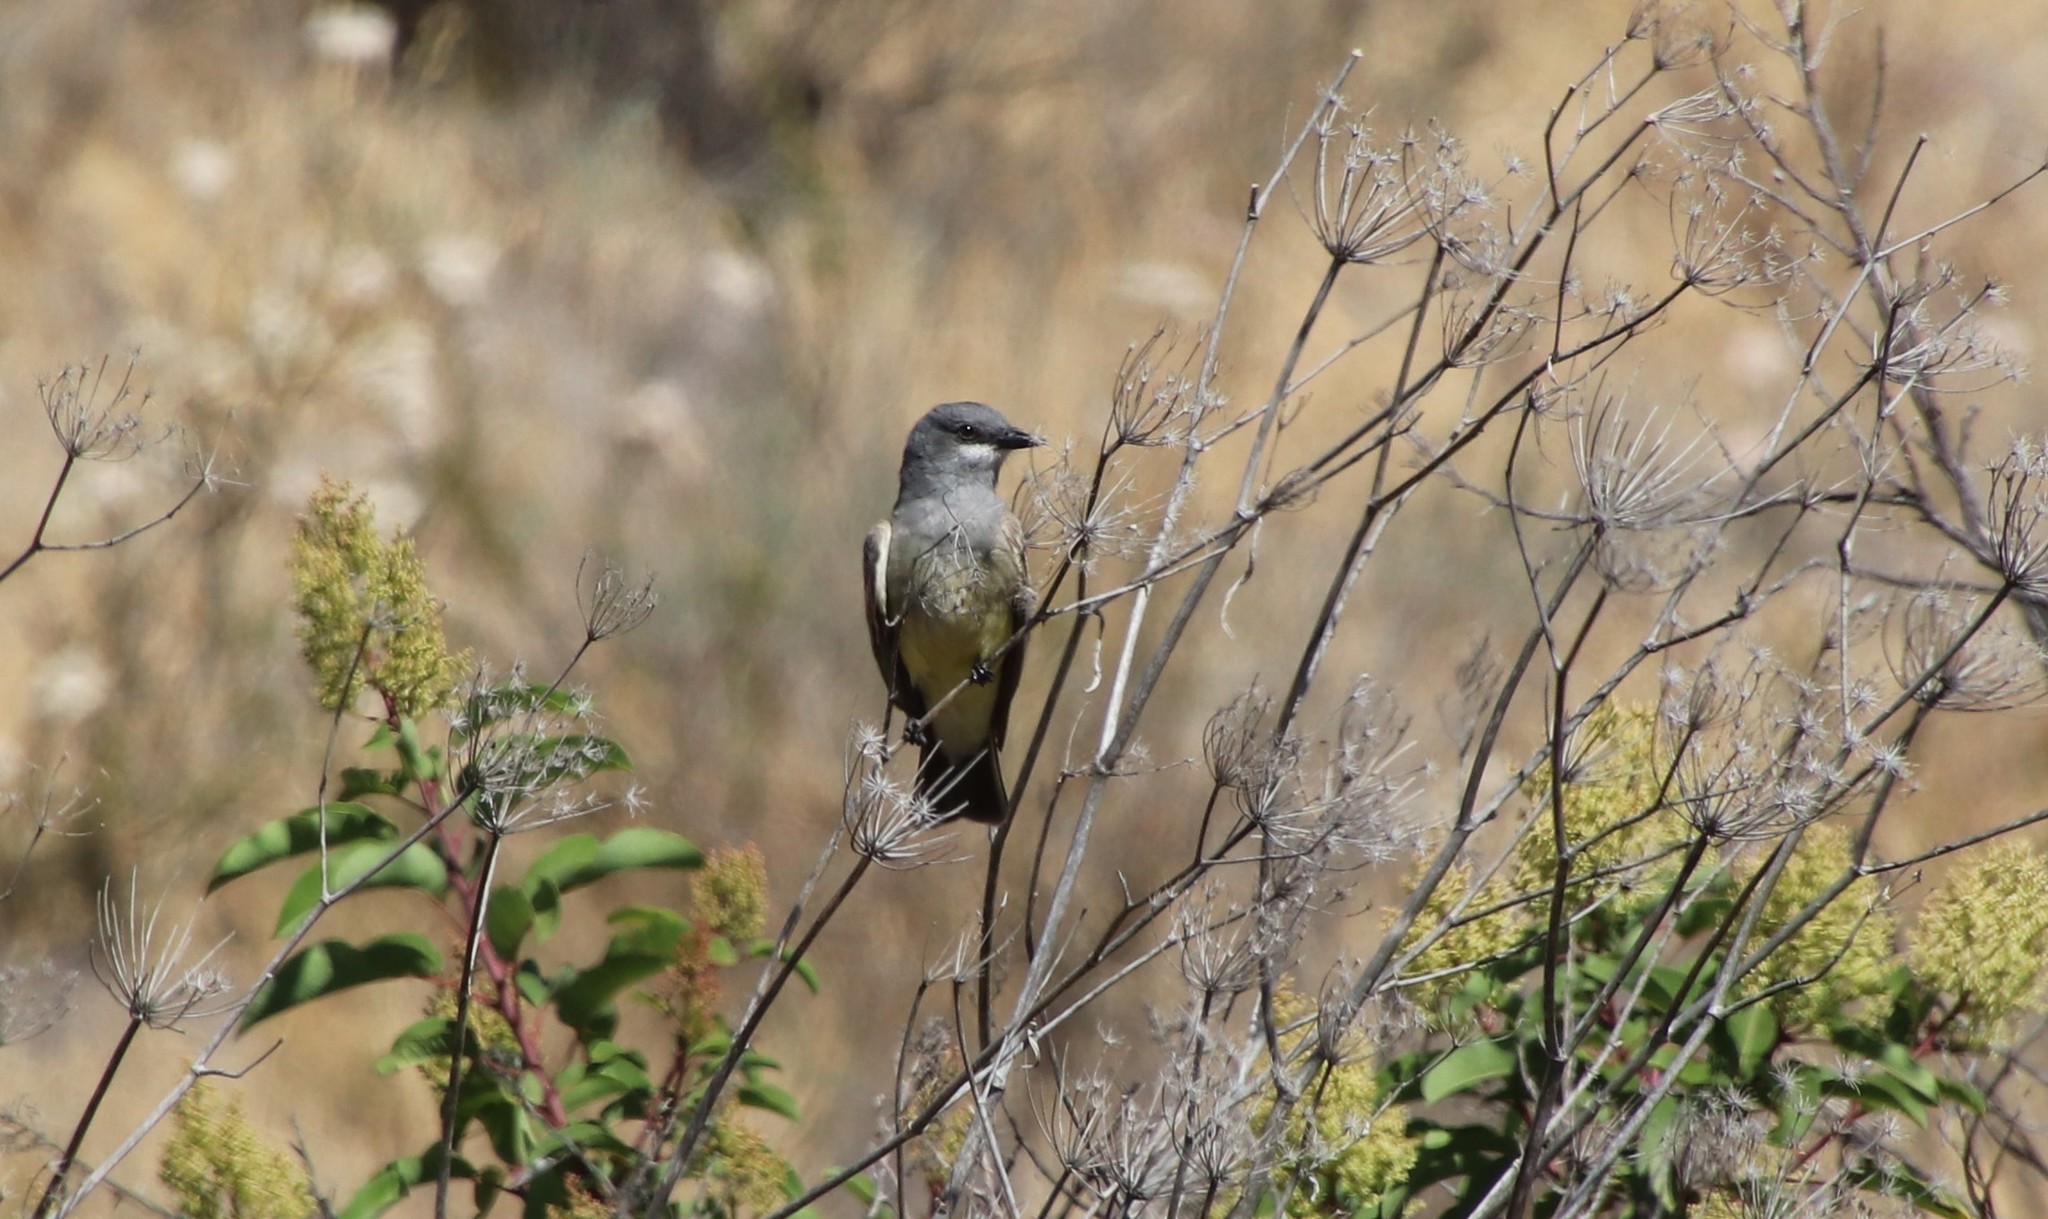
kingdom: Animalia
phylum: Chordata
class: Aves
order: Passeriformes
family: Tyrannidae
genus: Tyrannus
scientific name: Tyrannus vociferans
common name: Cassin's kingbird
